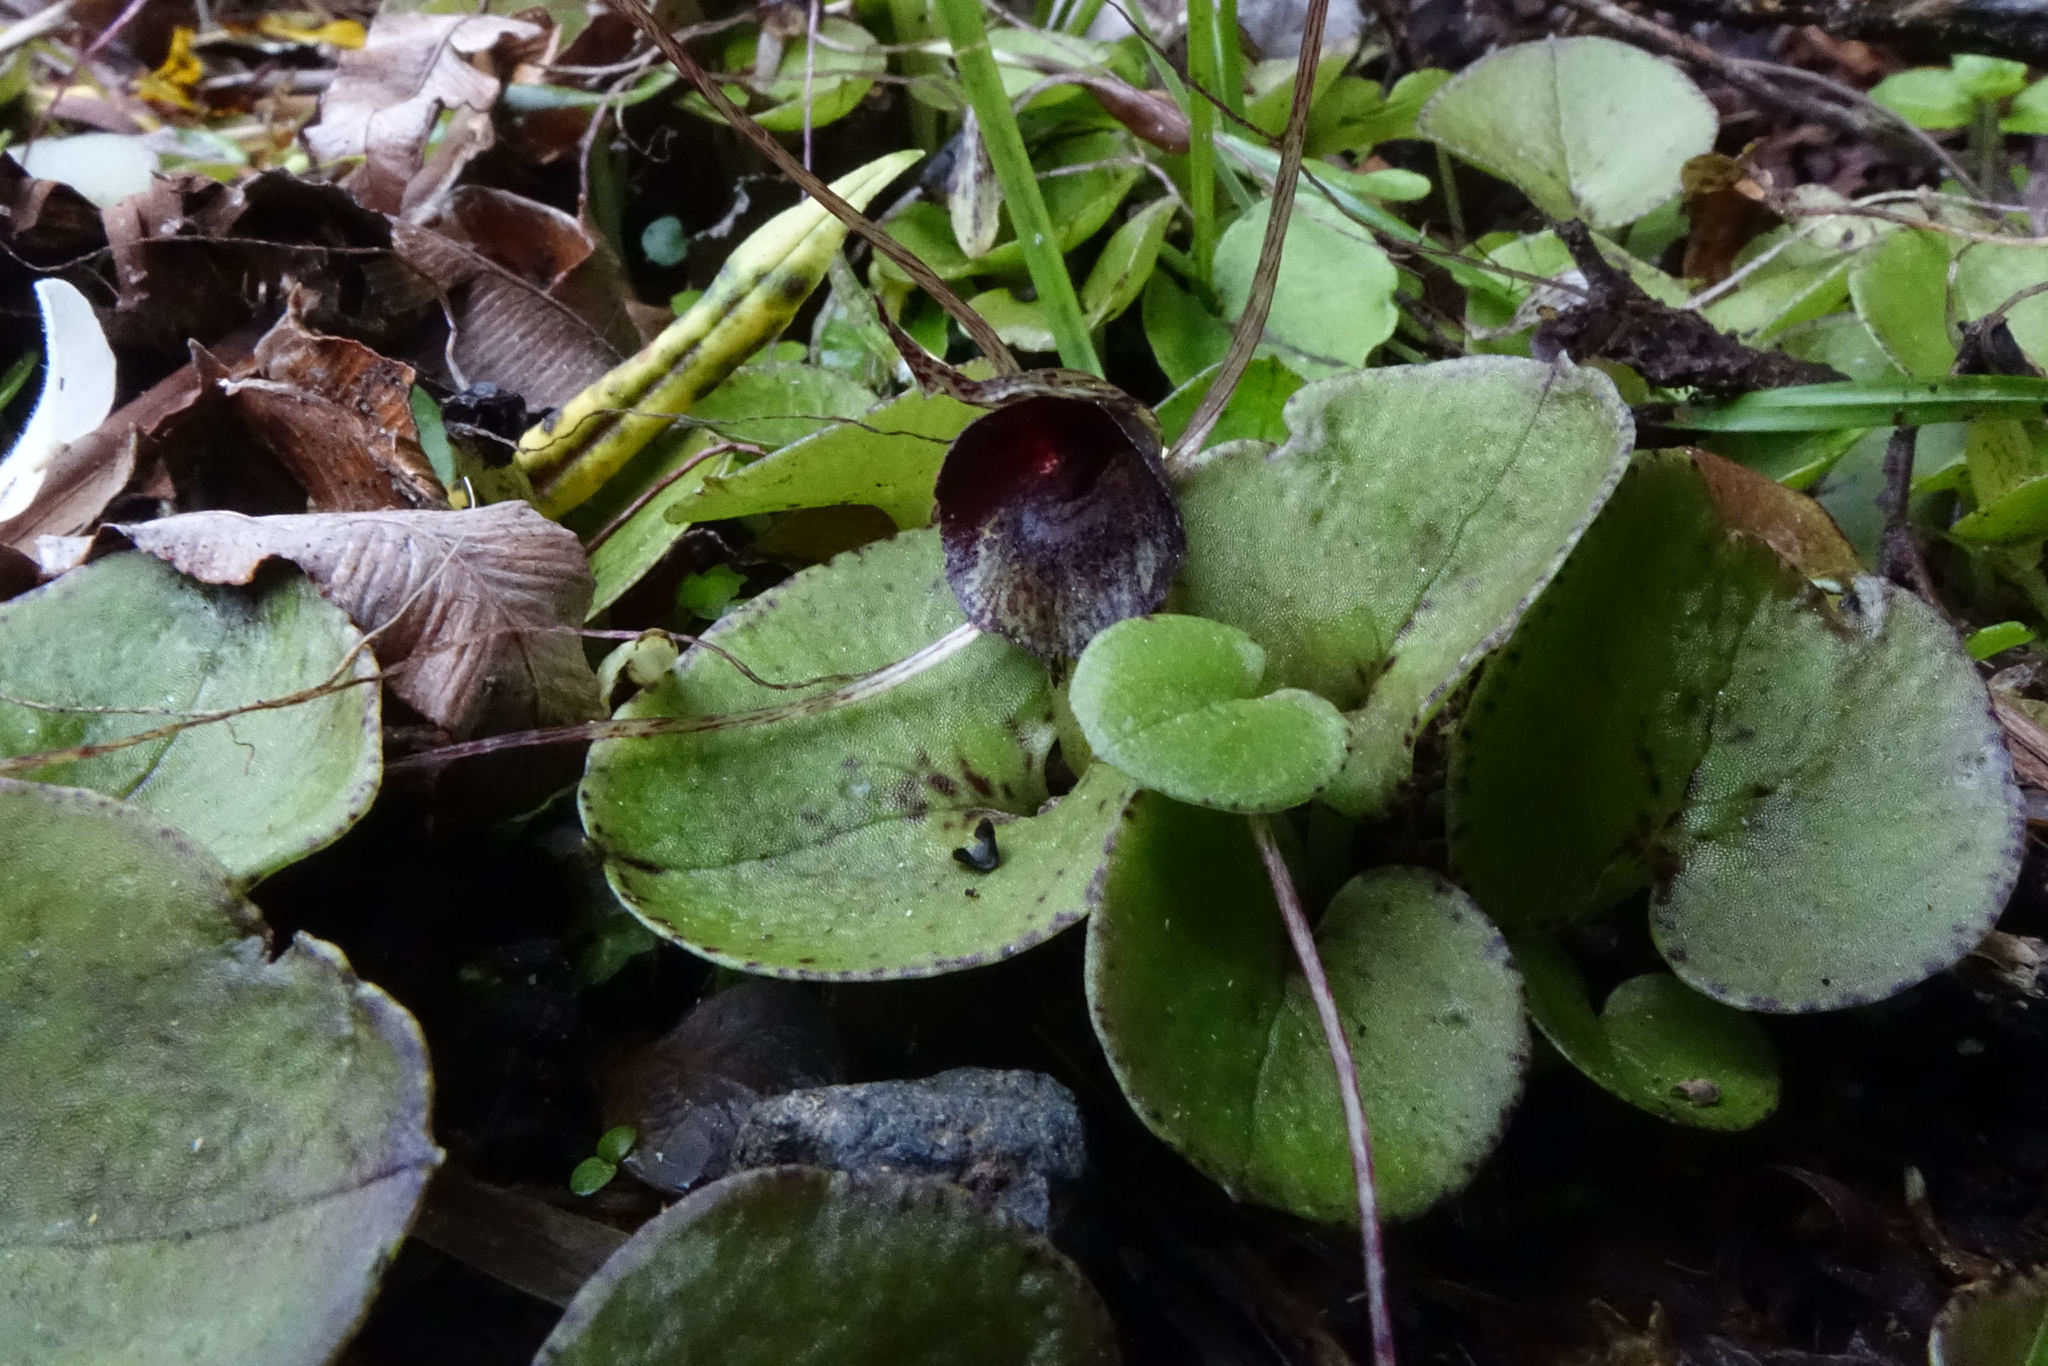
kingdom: Plantae
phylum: Tracheophyta
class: Liliopsida
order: Asparagales
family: Orchidaceae
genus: Corybas
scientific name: Corybas iridescens
